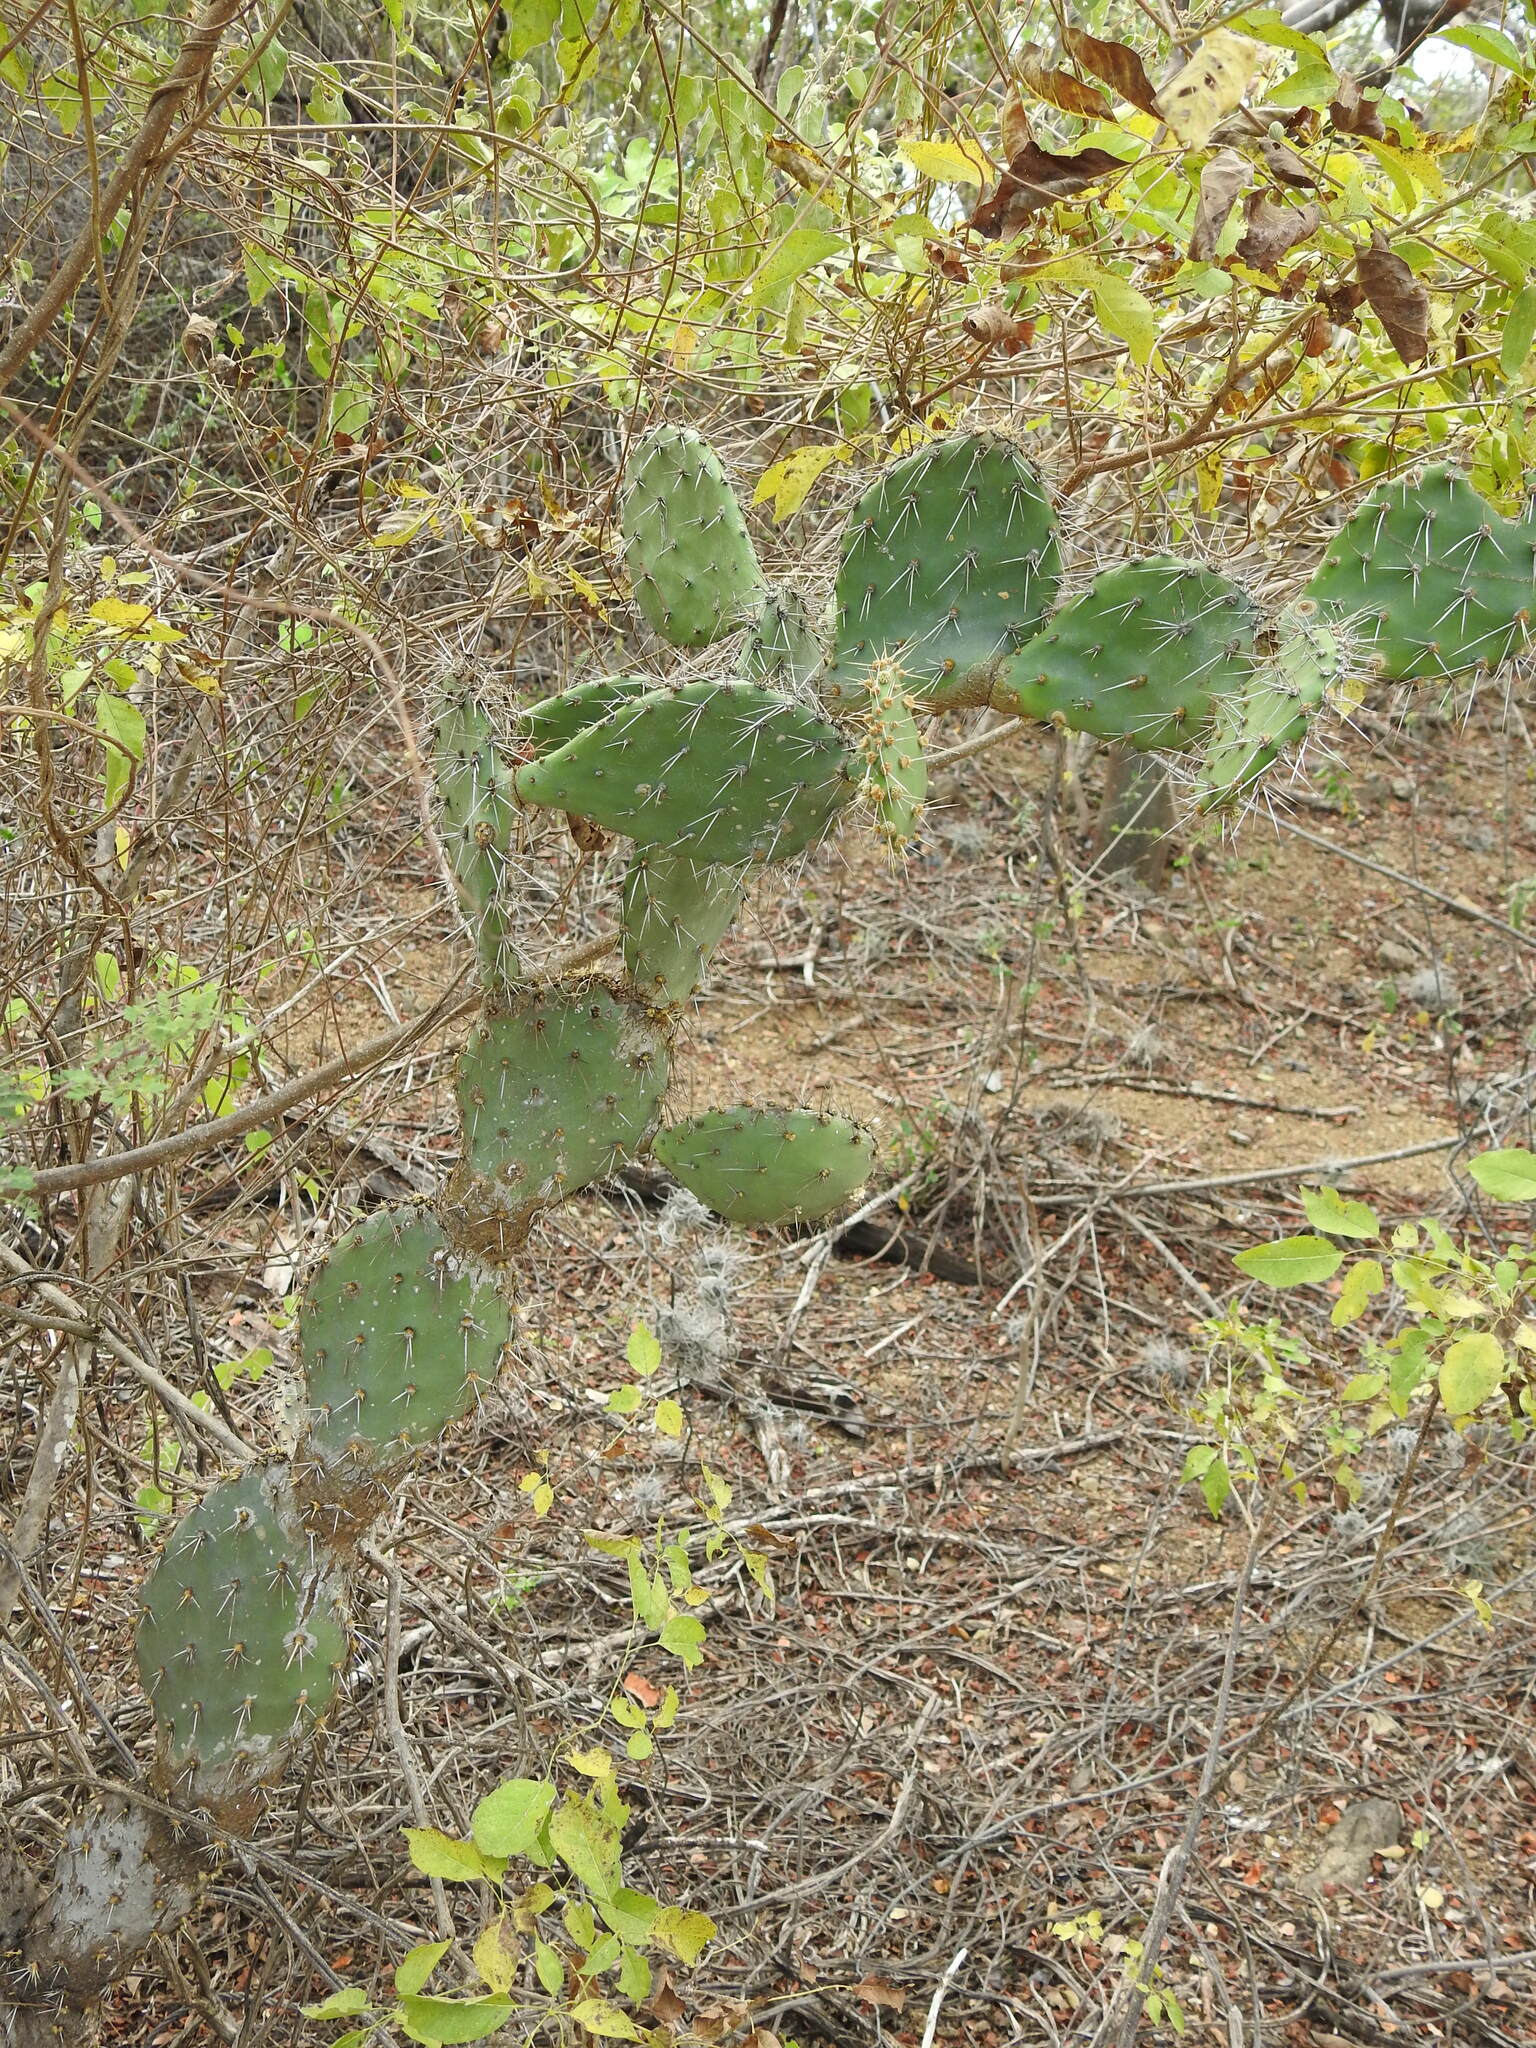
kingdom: Plantae
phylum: Tracheophyta
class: Magnoliopsida
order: Caryophyllales
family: Cactaceae
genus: Opuntia
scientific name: Opuntia caracassana
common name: Common prickly pear
